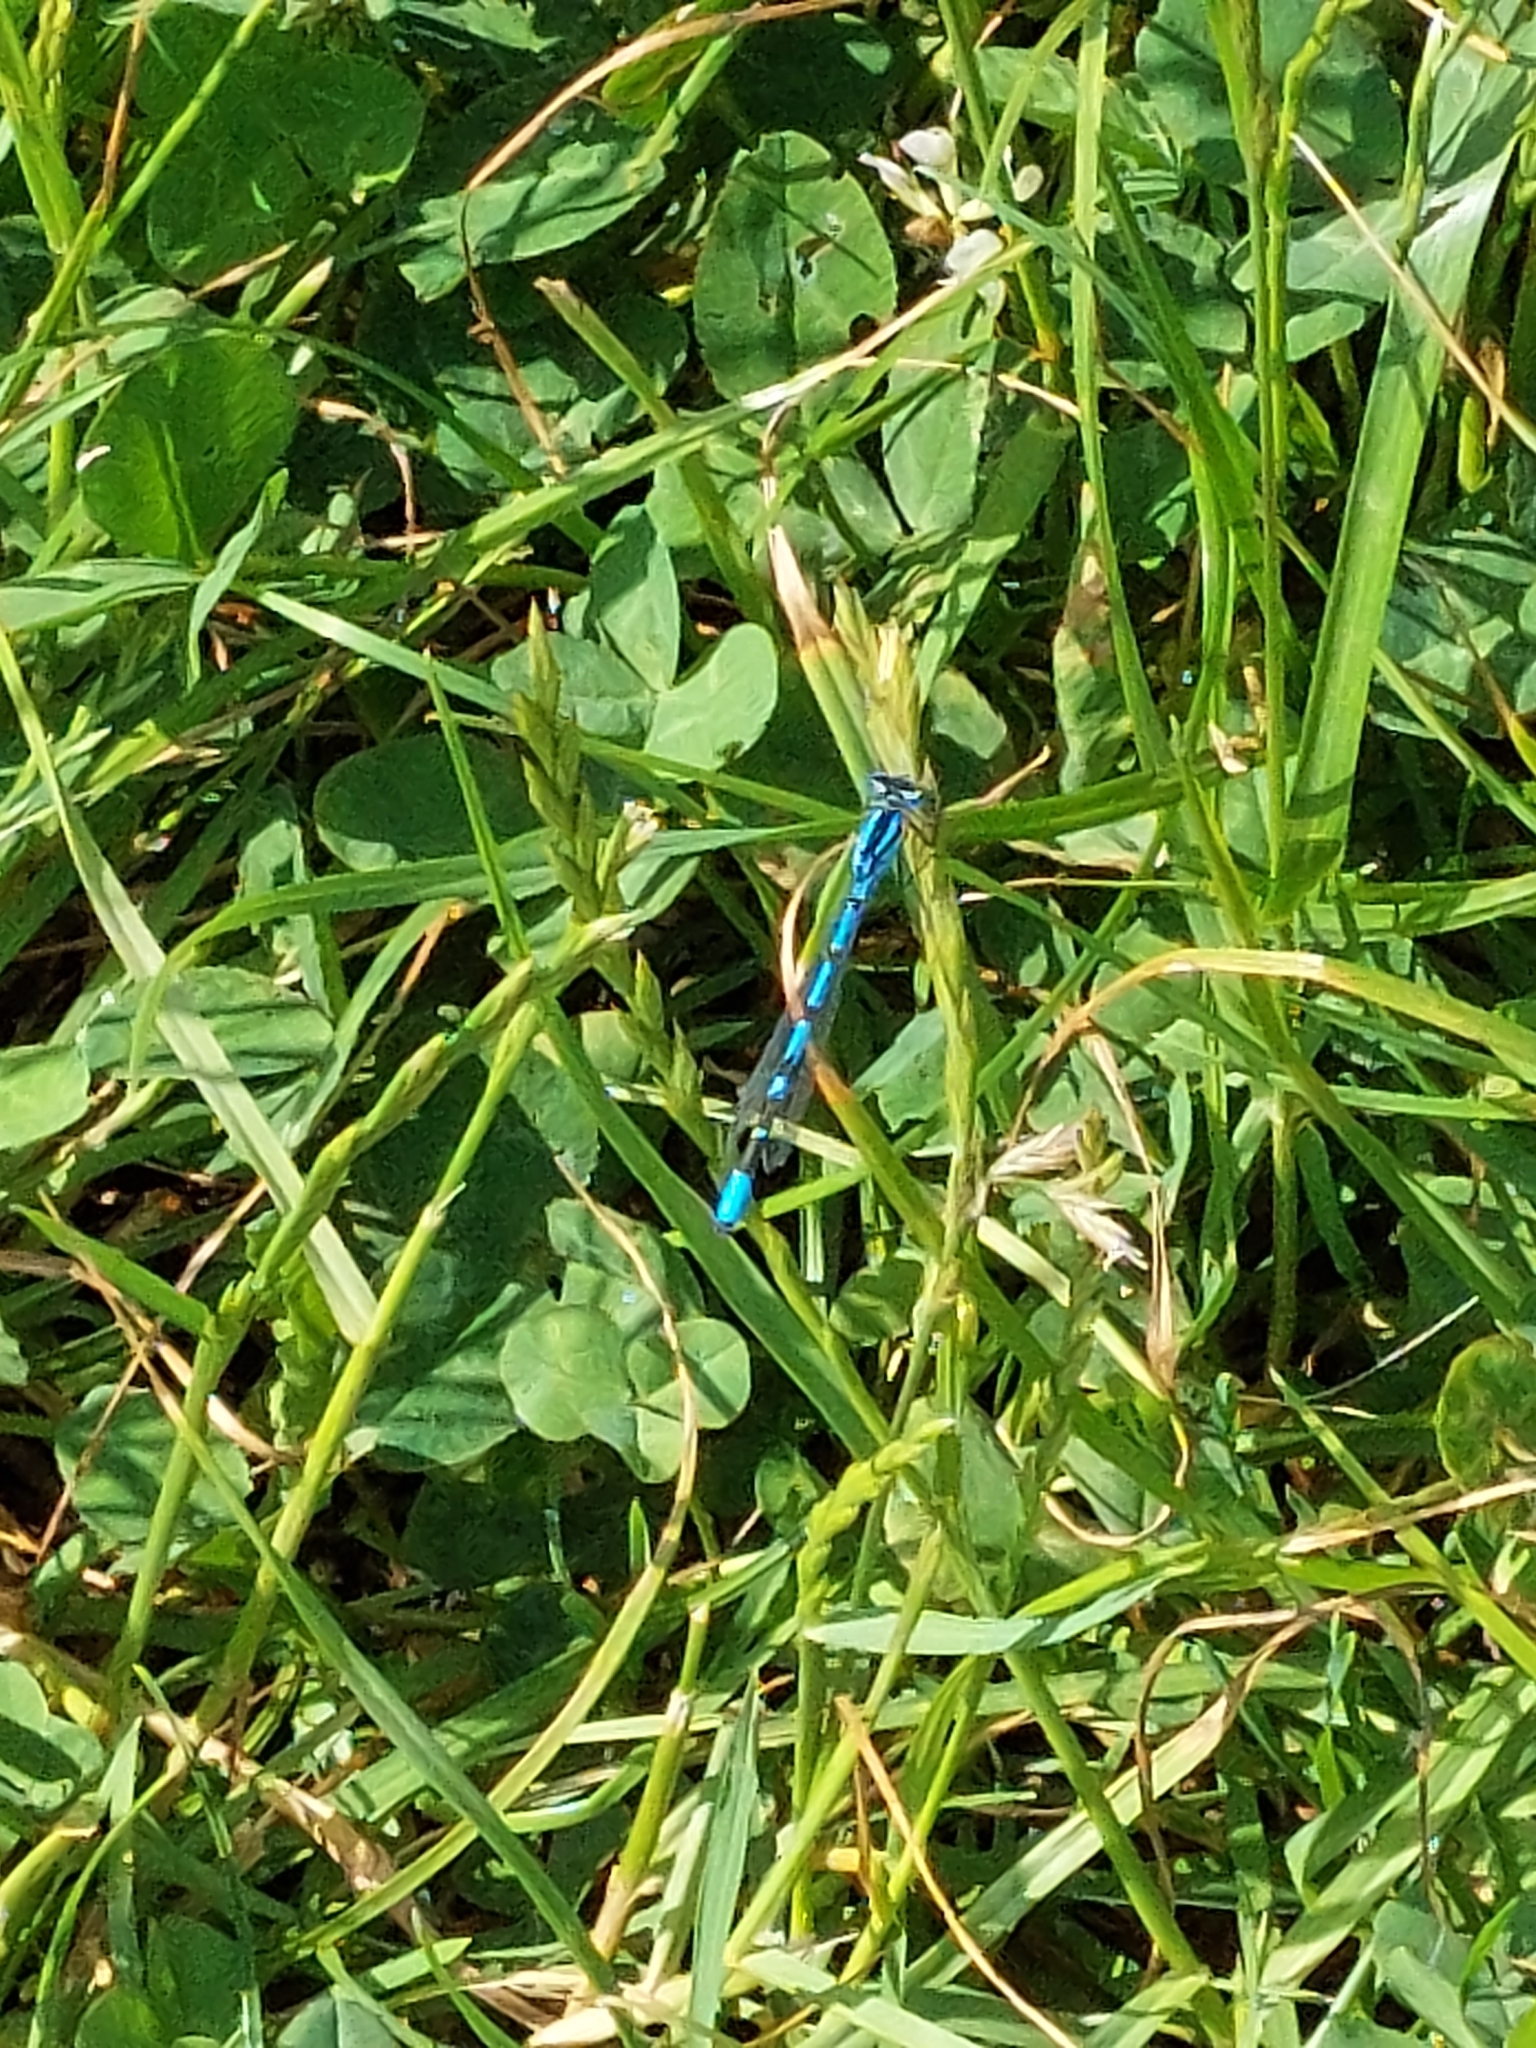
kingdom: Animalia
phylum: Arthropoda
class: Insecta
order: Odonata
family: Coenagrionidae
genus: Enallagma
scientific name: Enallagma cyathigerum
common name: Common blue damselfly
